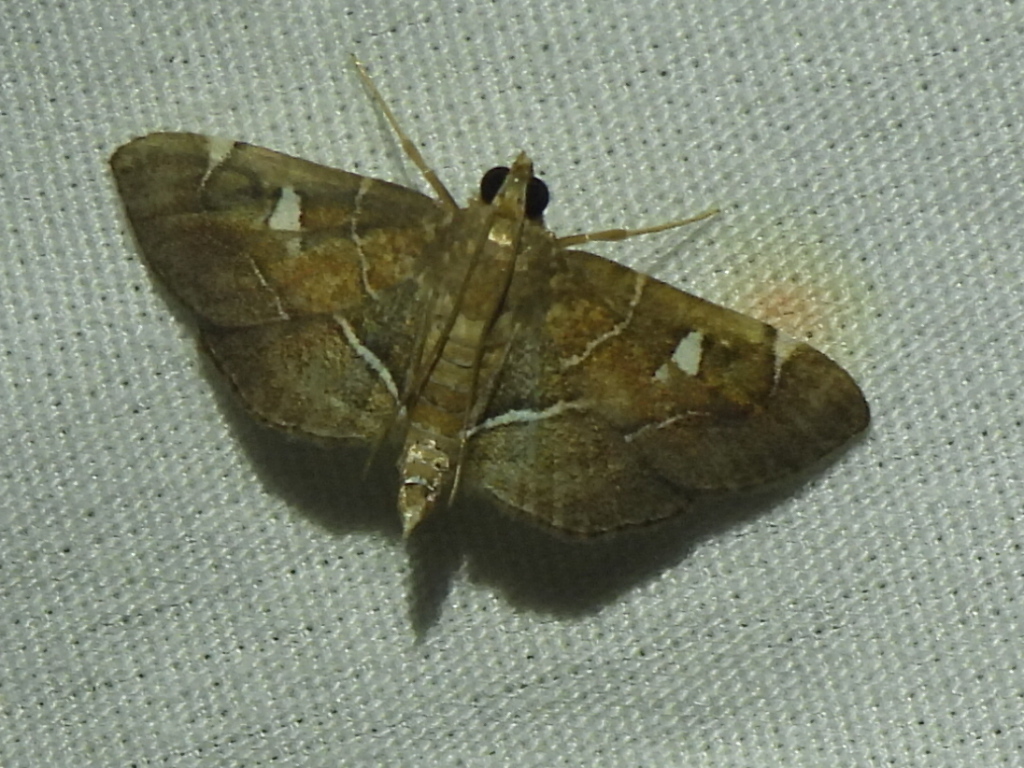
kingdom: Animalia
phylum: Arthropoda
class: Insecta
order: Lepidoptera
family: Crambidae
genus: Lamprosema
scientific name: Lamprosema victoriae
